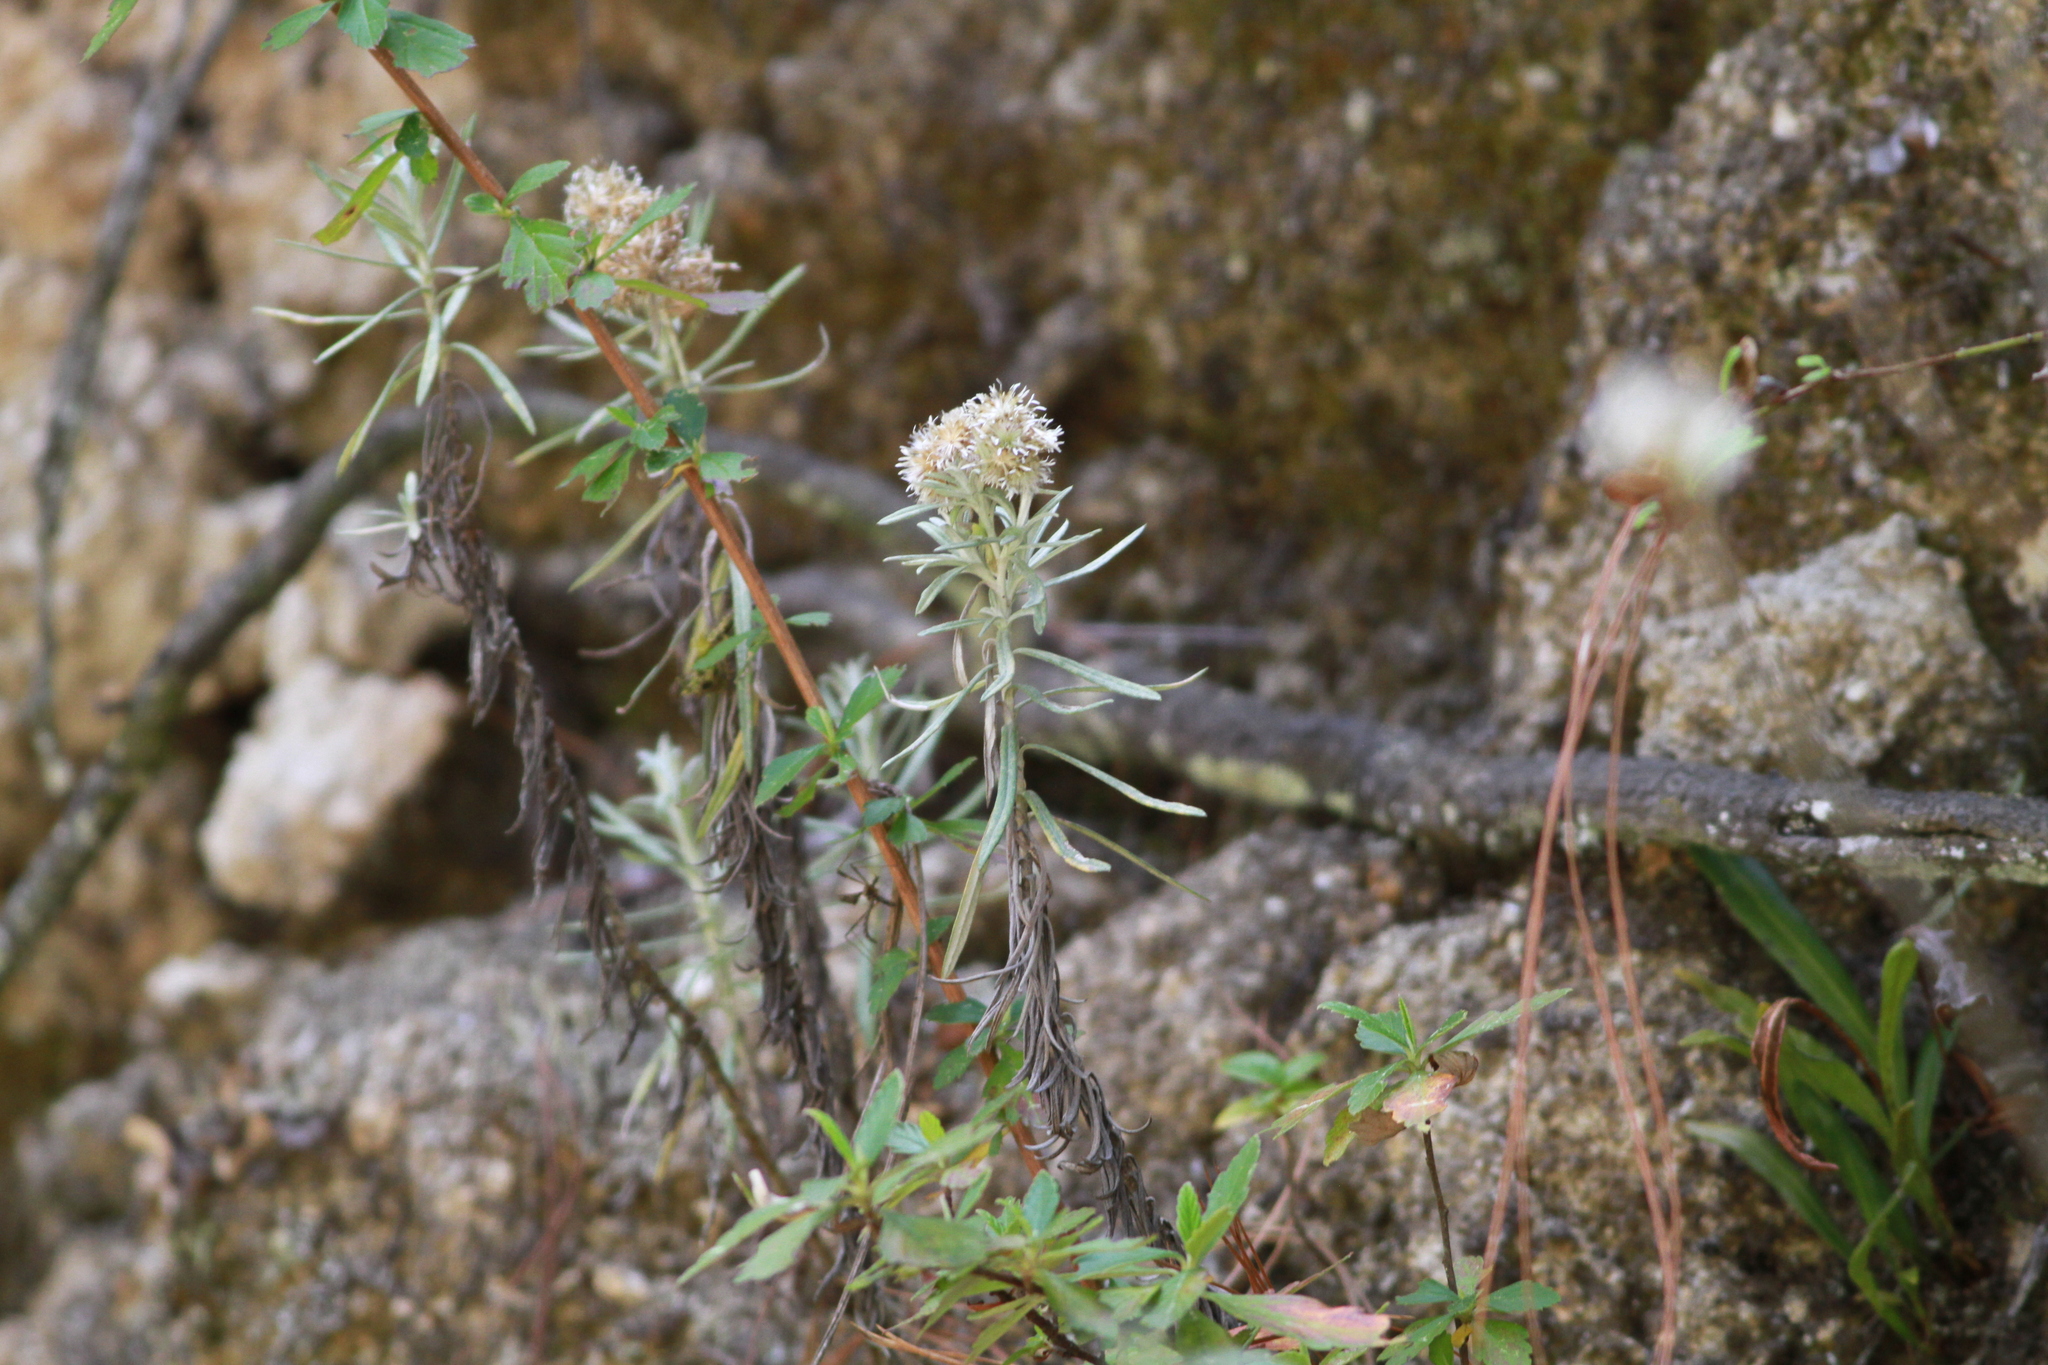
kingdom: Plantae
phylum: Tracheophyta
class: Magnoliopsida
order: Asterales
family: Asteraceae
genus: Gnaphaliothamnus
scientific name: Gnaphaliothamnus salicifolius
